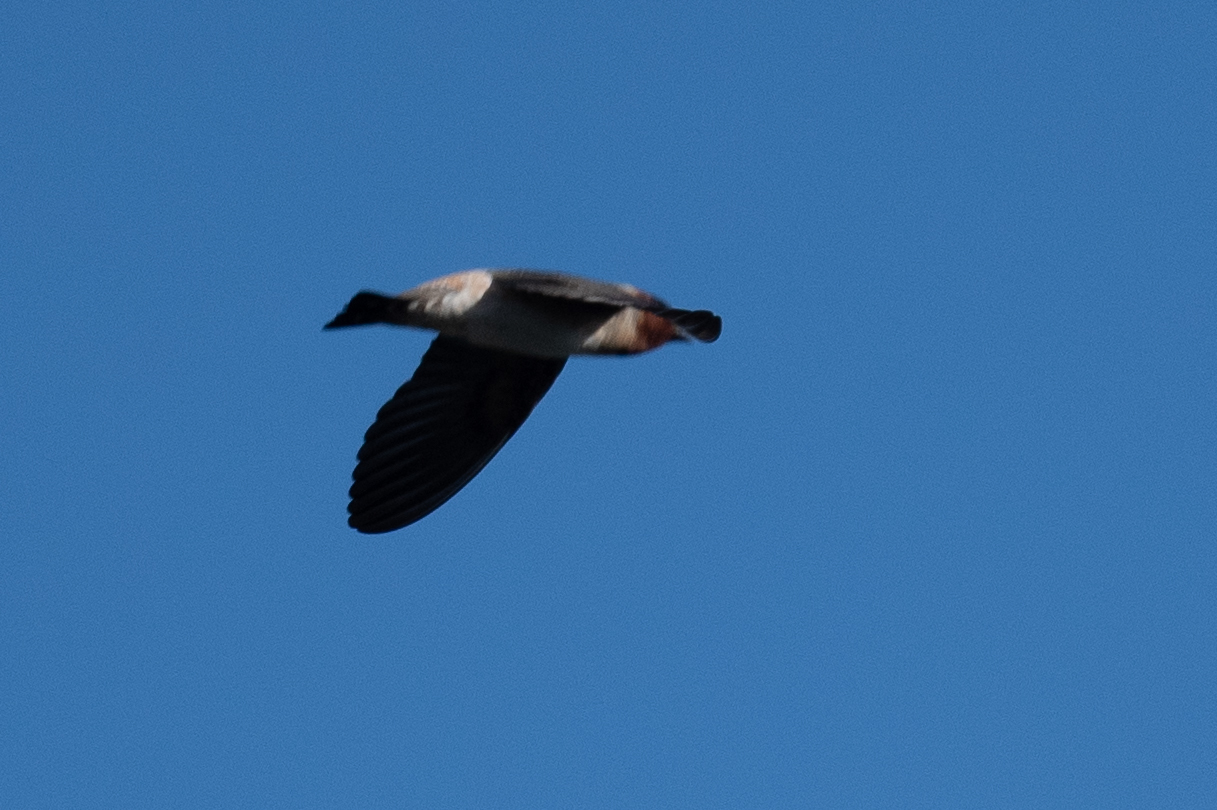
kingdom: Animalia
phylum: Chordata
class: Aves
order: Passeriformes
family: Hirundinidae
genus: Petrochelidon
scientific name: Petrochelidon pyrrhonota
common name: American cliff swallow
